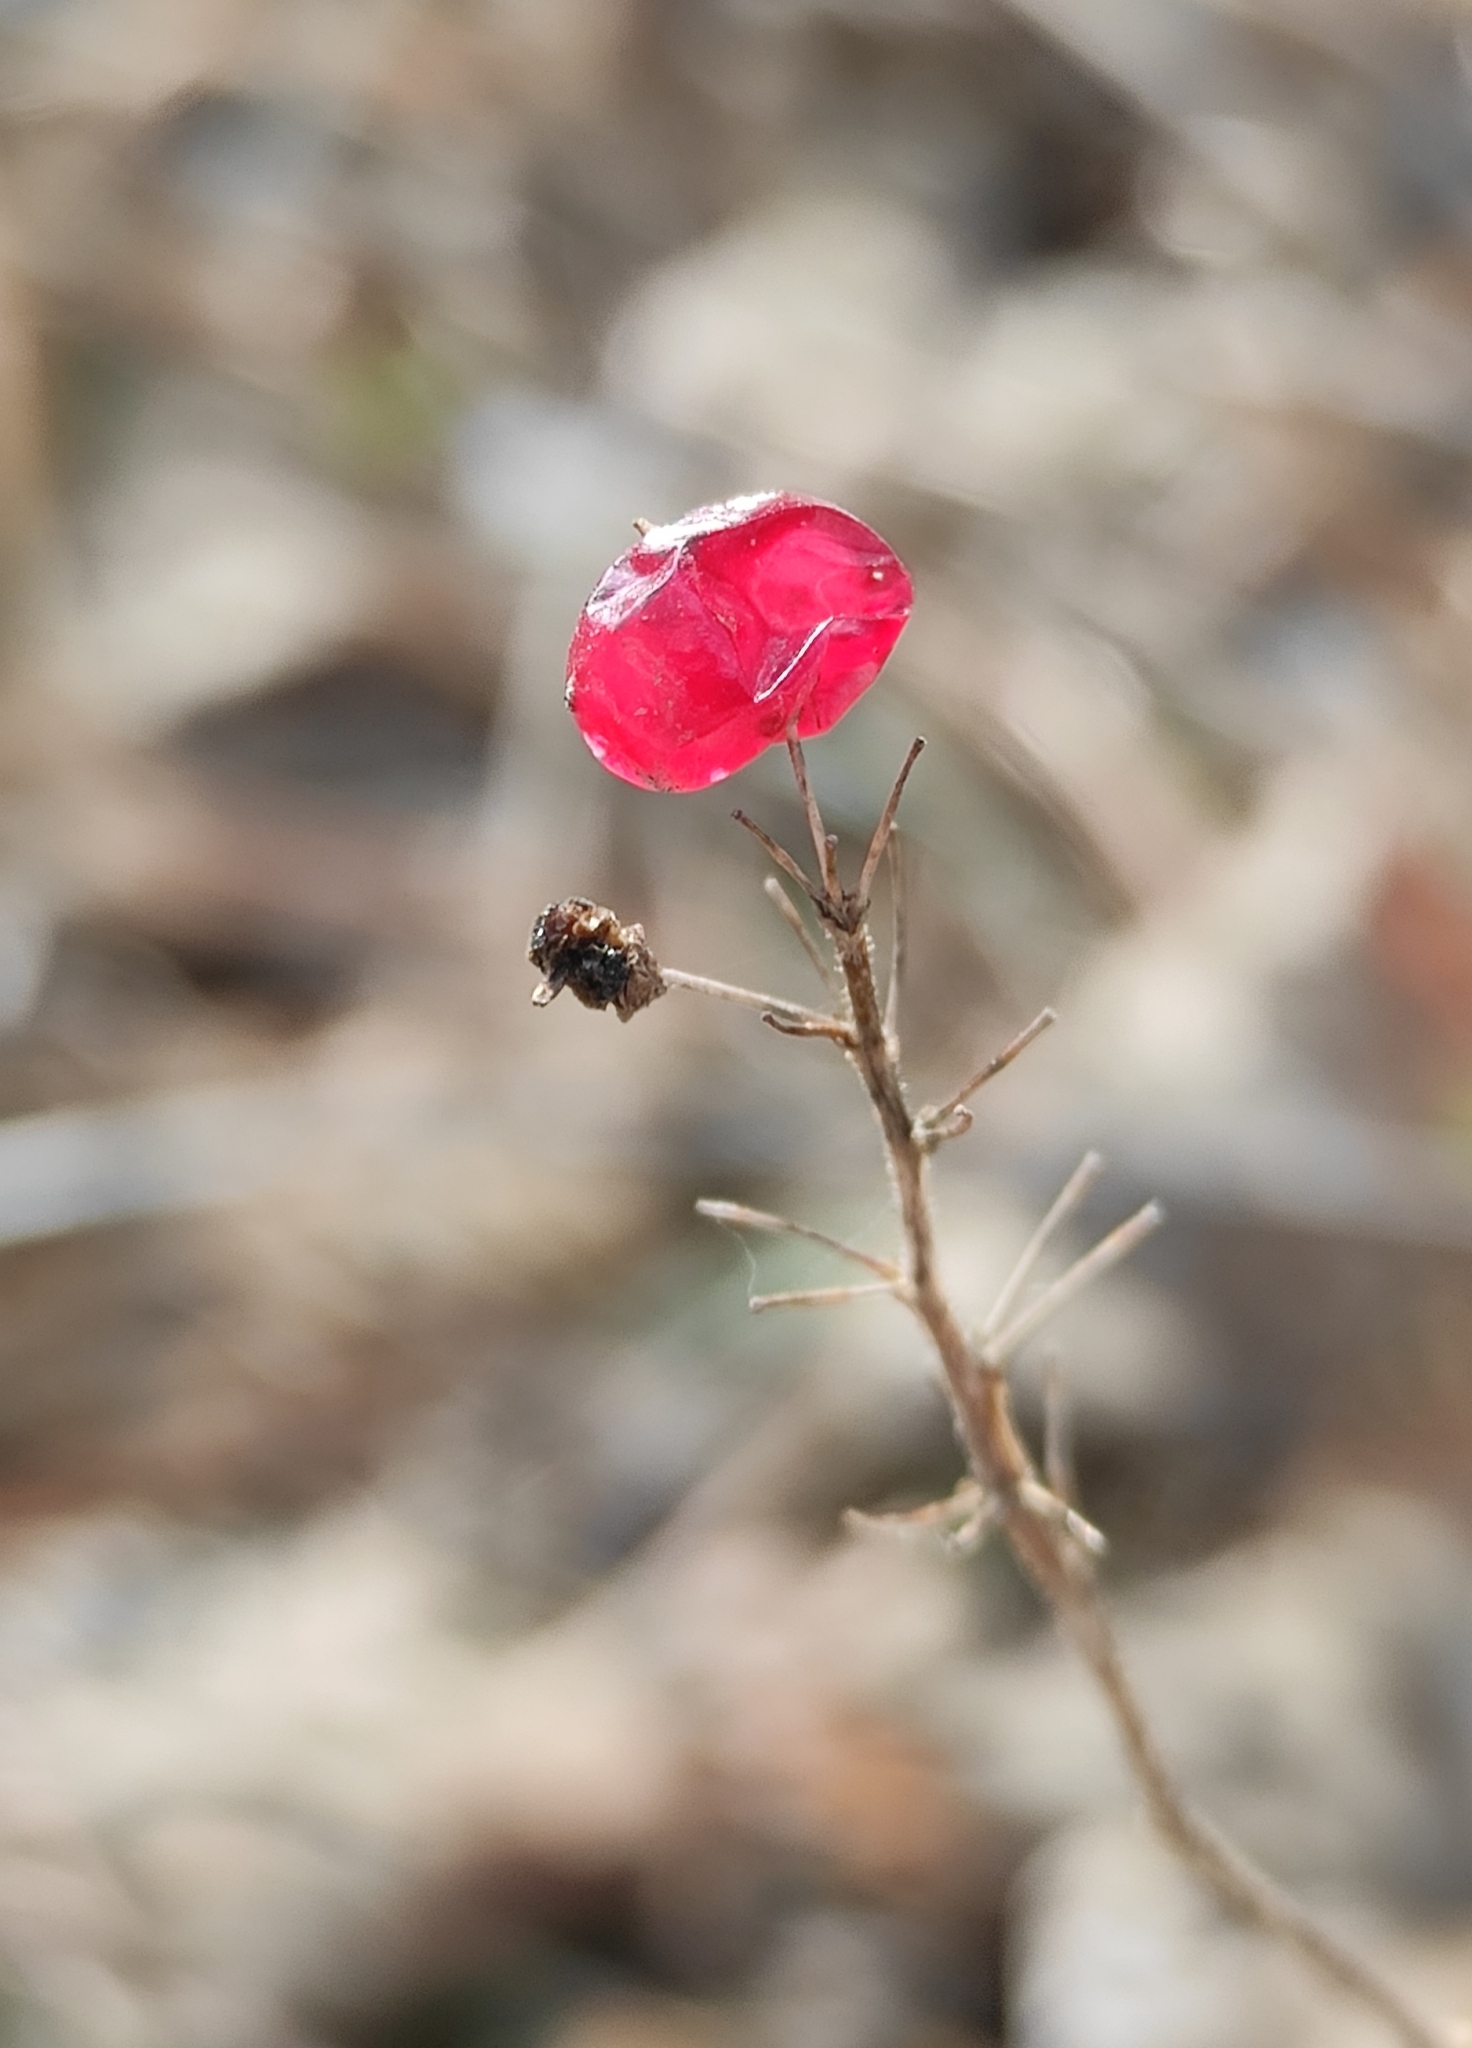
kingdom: Plantae
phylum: Tracheophyta
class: Liliopsida
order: Asparagales
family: Asparagaceae
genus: Maianthemum
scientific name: Maianthemum bifolium
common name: May lily
